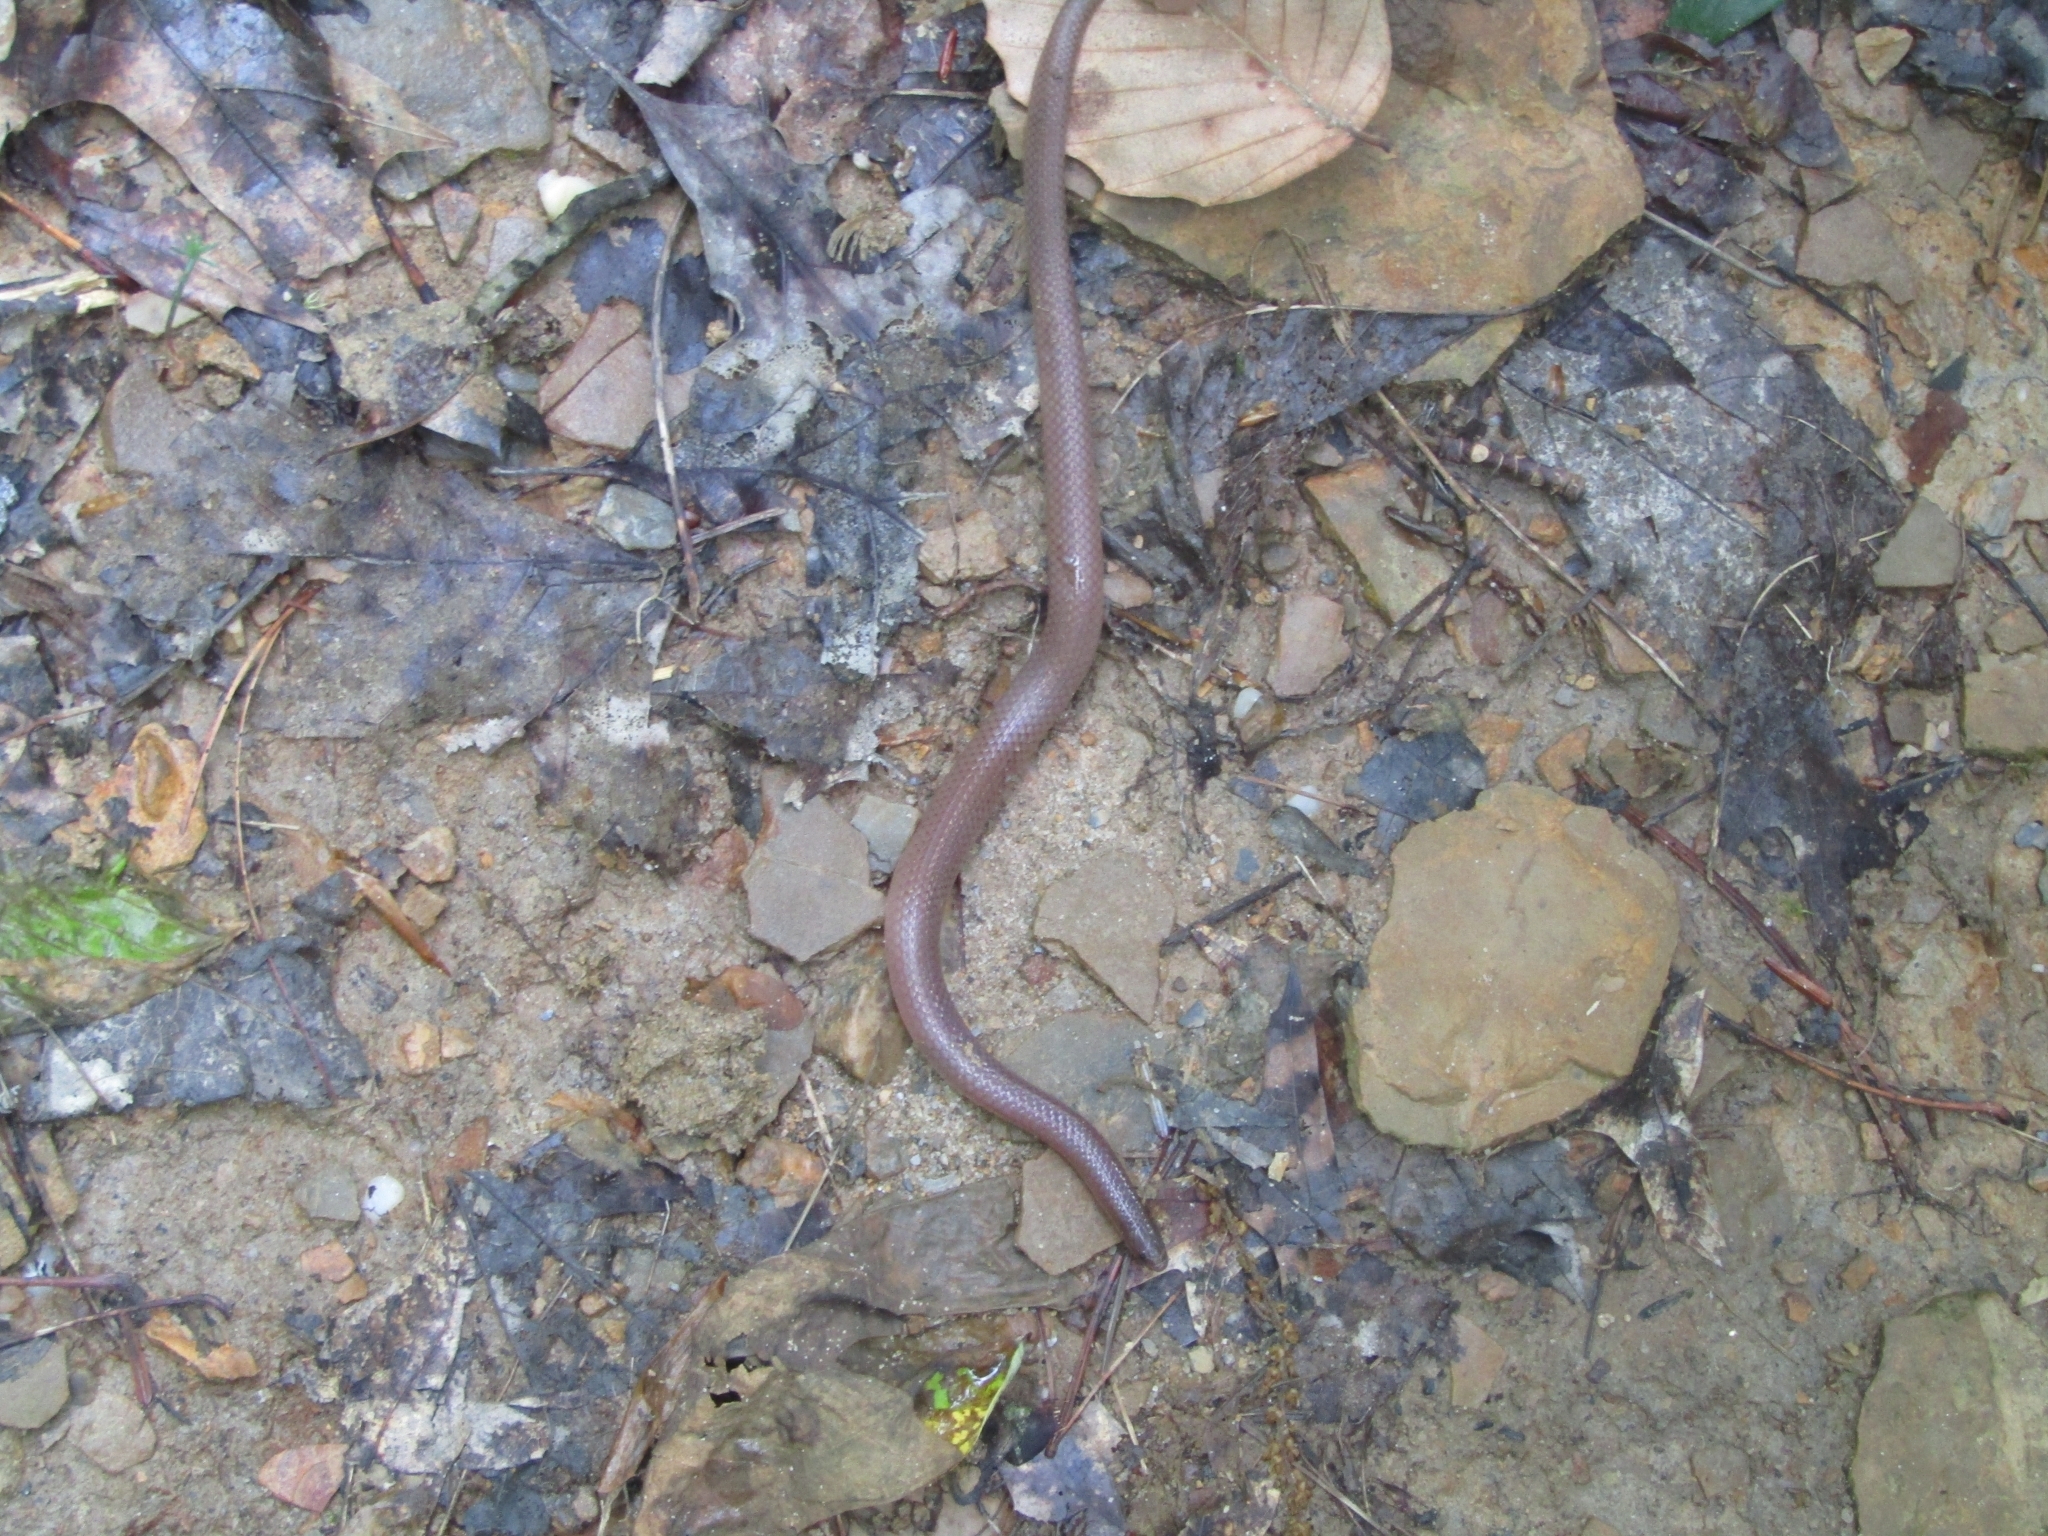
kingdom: Animalia
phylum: Chordata
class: Squamata
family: Colubridae
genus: Carphophis
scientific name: Carphophis amoenus
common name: Eastern worm snake
